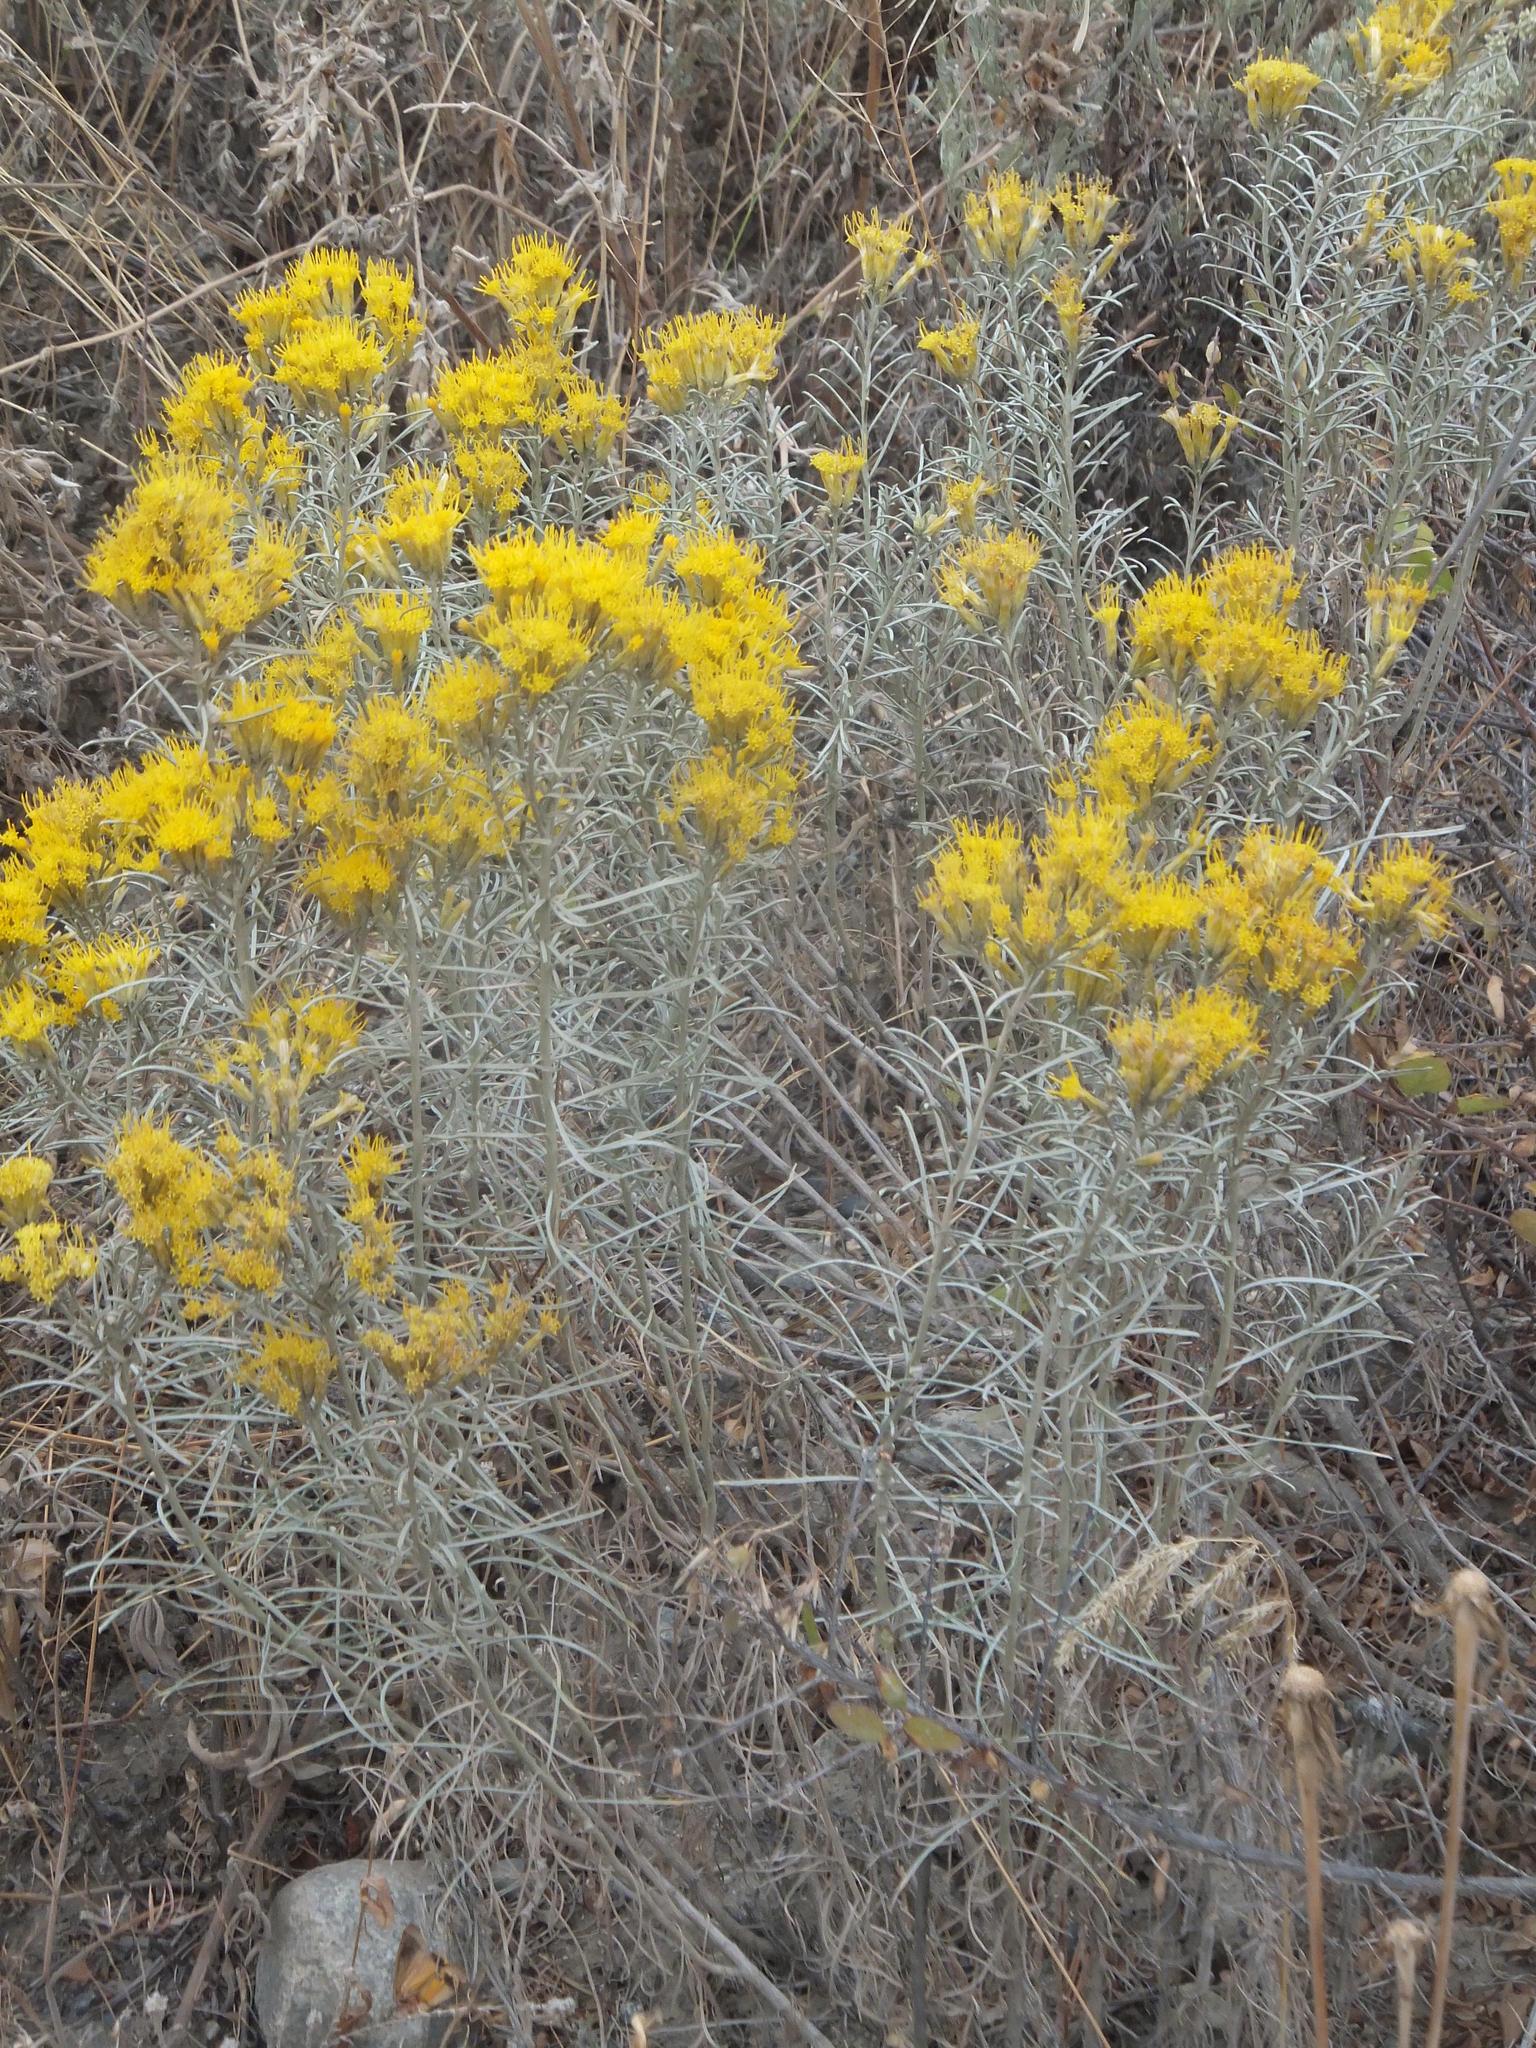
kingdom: Plantae
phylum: Tracheophyta
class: Magnoliopsida
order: Asterales
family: Asteraceae
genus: Ericameria
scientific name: Ericameria nauseosa
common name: Rubber rabbitbrush
